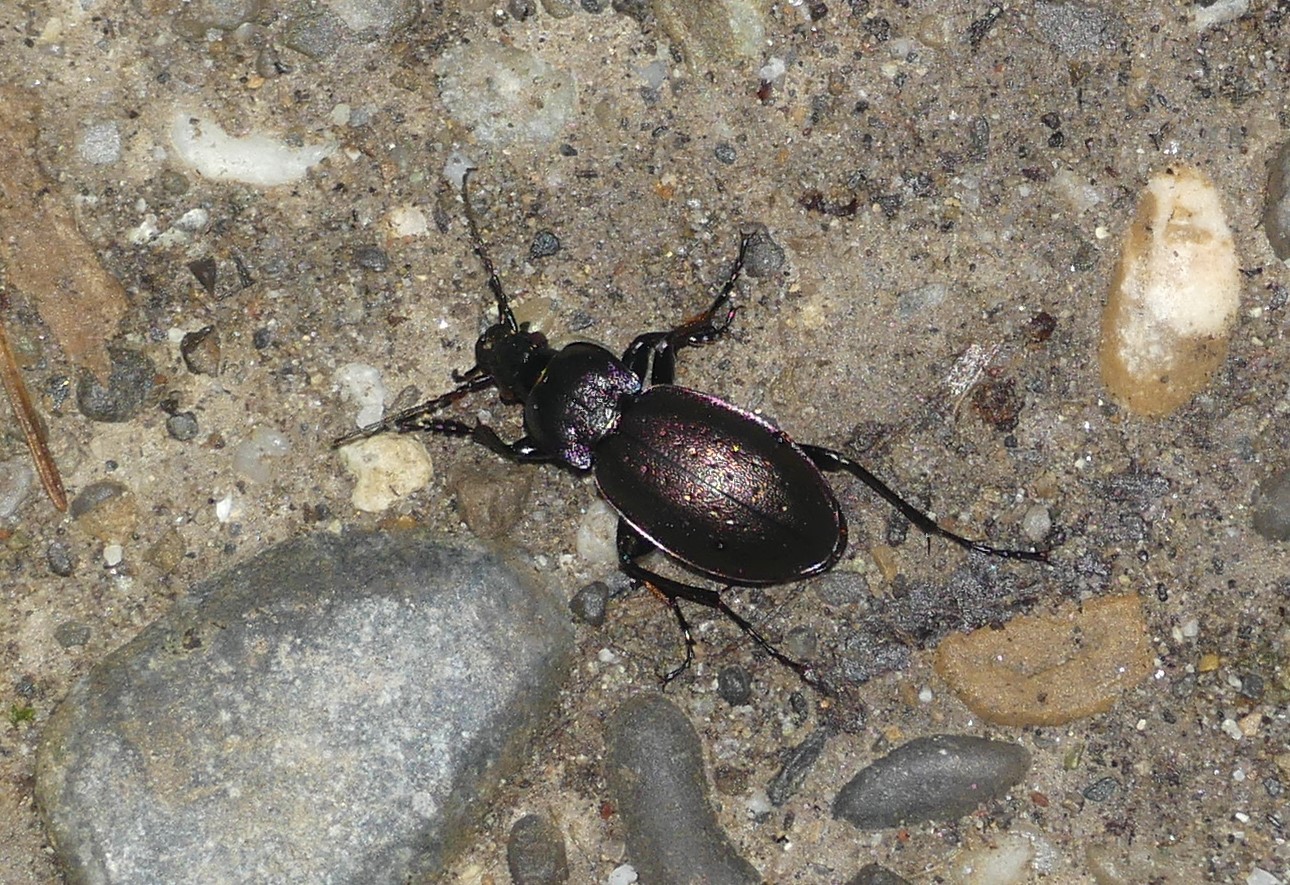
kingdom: Animalia
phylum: Arthropoda
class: Insecta
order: Coleoptera
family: Carabidae
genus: Carabus
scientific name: Carabus nemoralis
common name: European ground beetle
